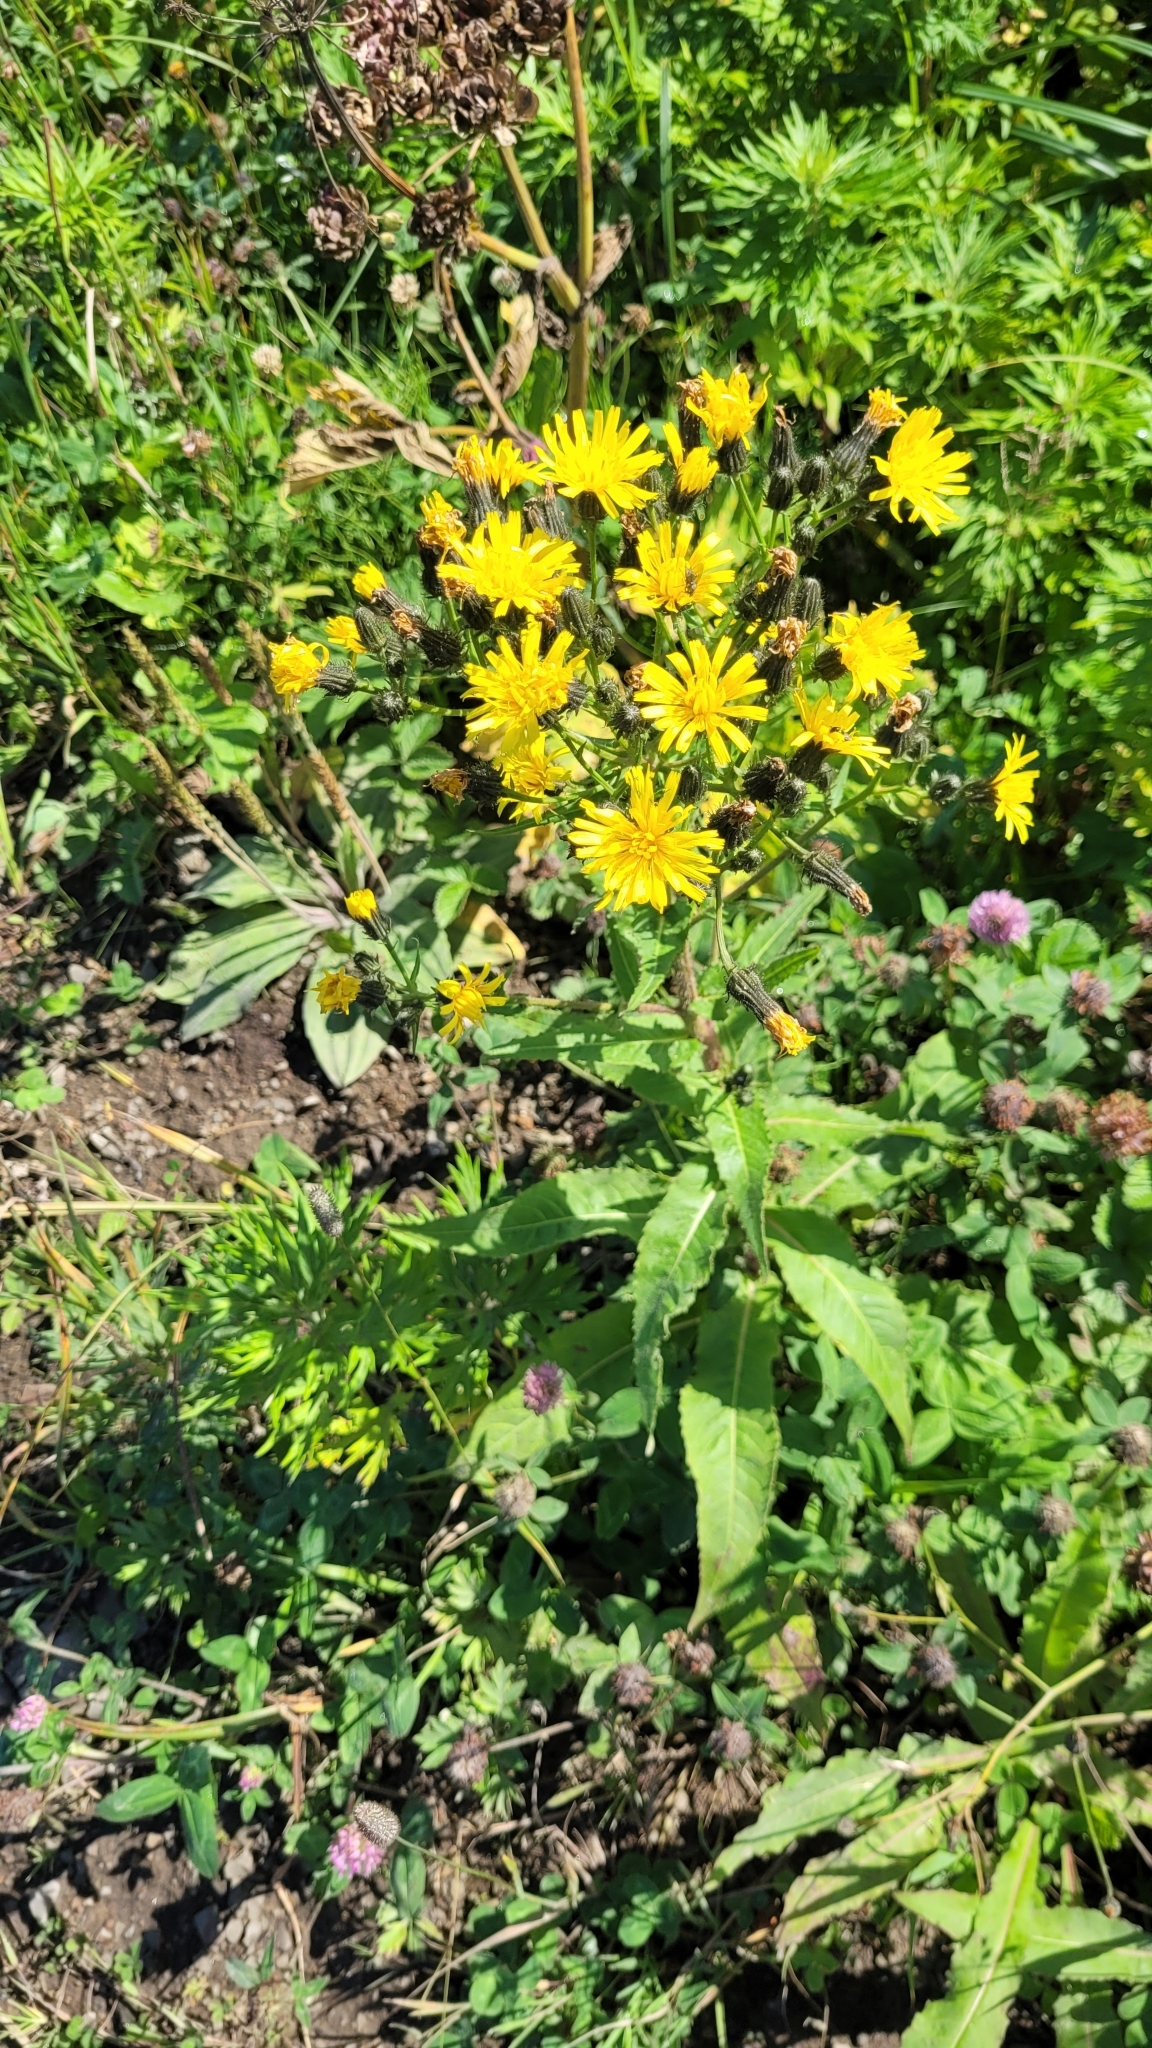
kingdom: Plantae
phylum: Tracheophyta
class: Magnoliopsida
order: Asterales
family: Asteraceae
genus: Picris
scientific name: Picris japonica
